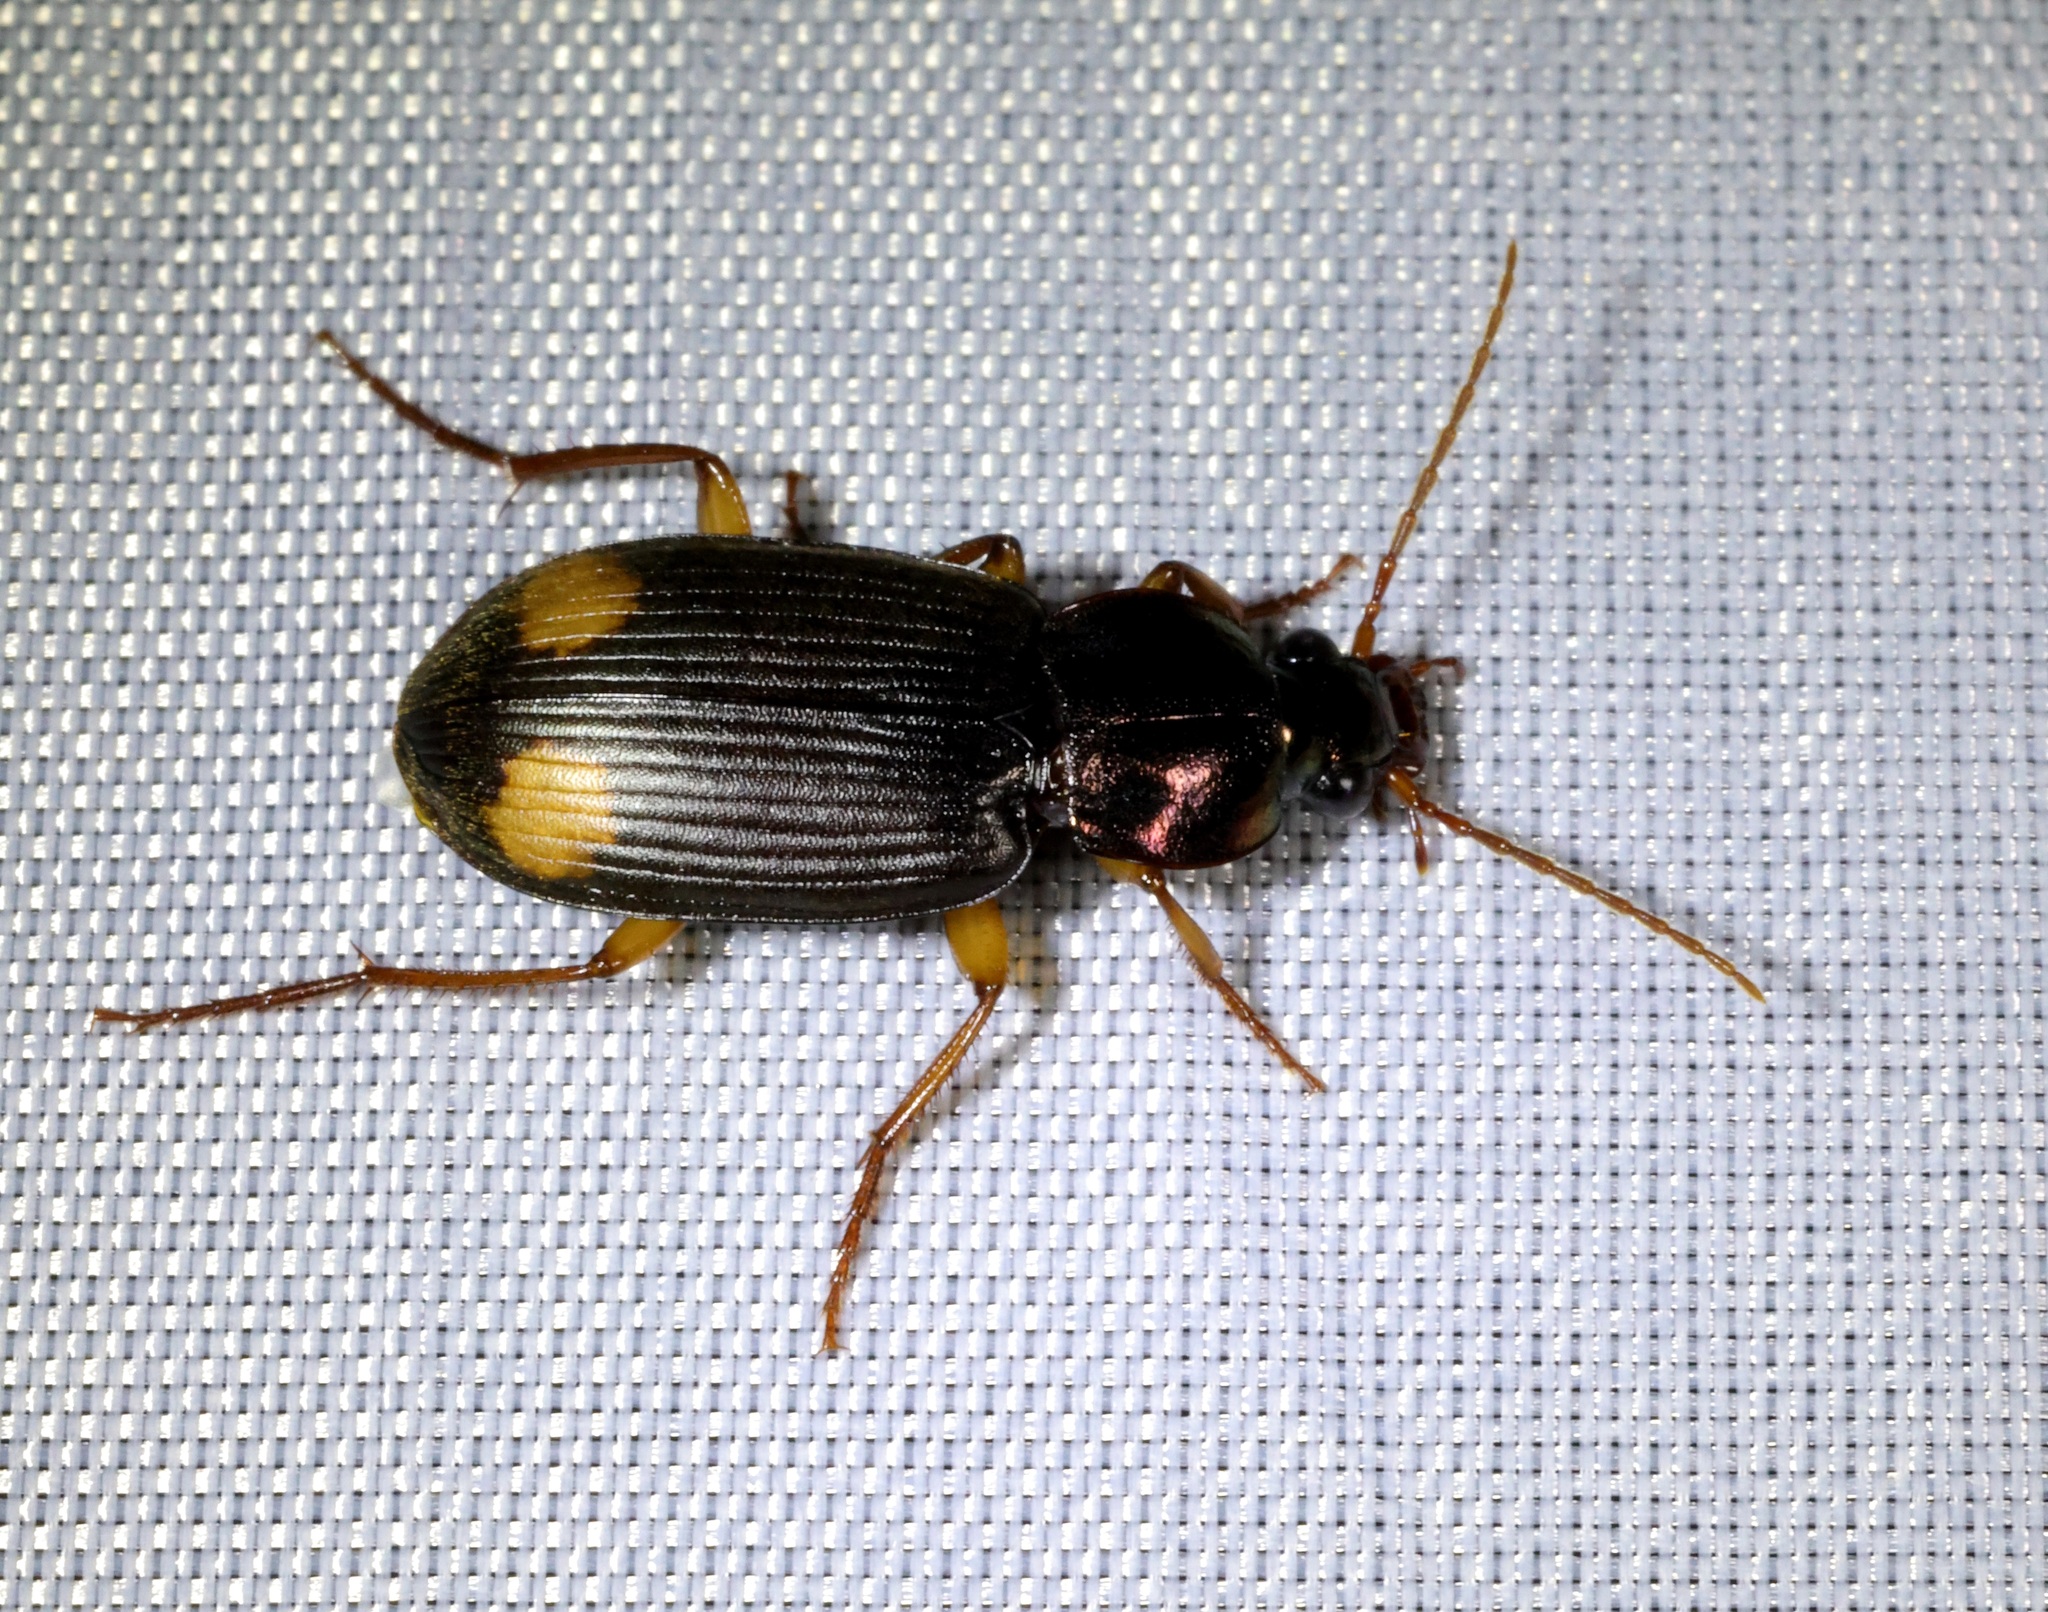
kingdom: Animalia
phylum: Arthropoda
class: Insecta
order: Coleoptera
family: Carabidae
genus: Chlaenius
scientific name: Chlaenius tetragonoderus
